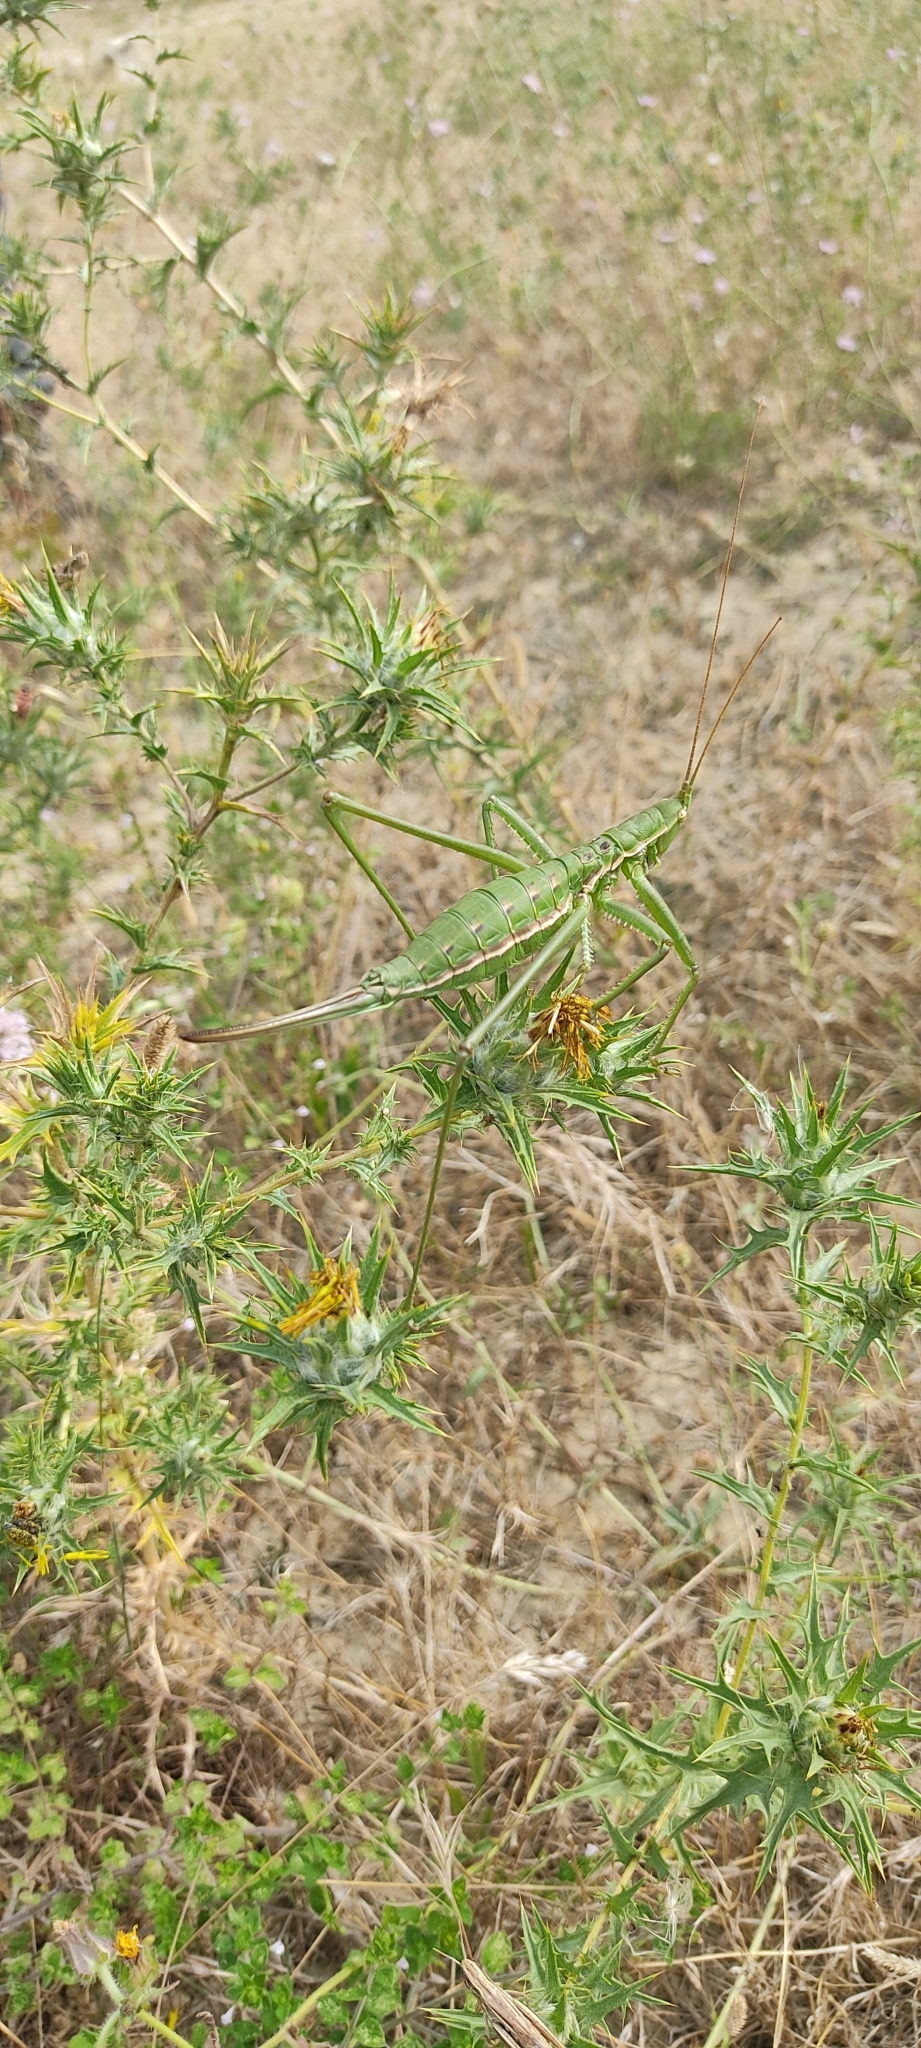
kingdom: Animalia
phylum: Arthropoda
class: Insecta
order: Orthoptera
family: Tettigoniidae
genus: Saga
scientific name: Saga pedo
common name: Common predatory bush-cricket
